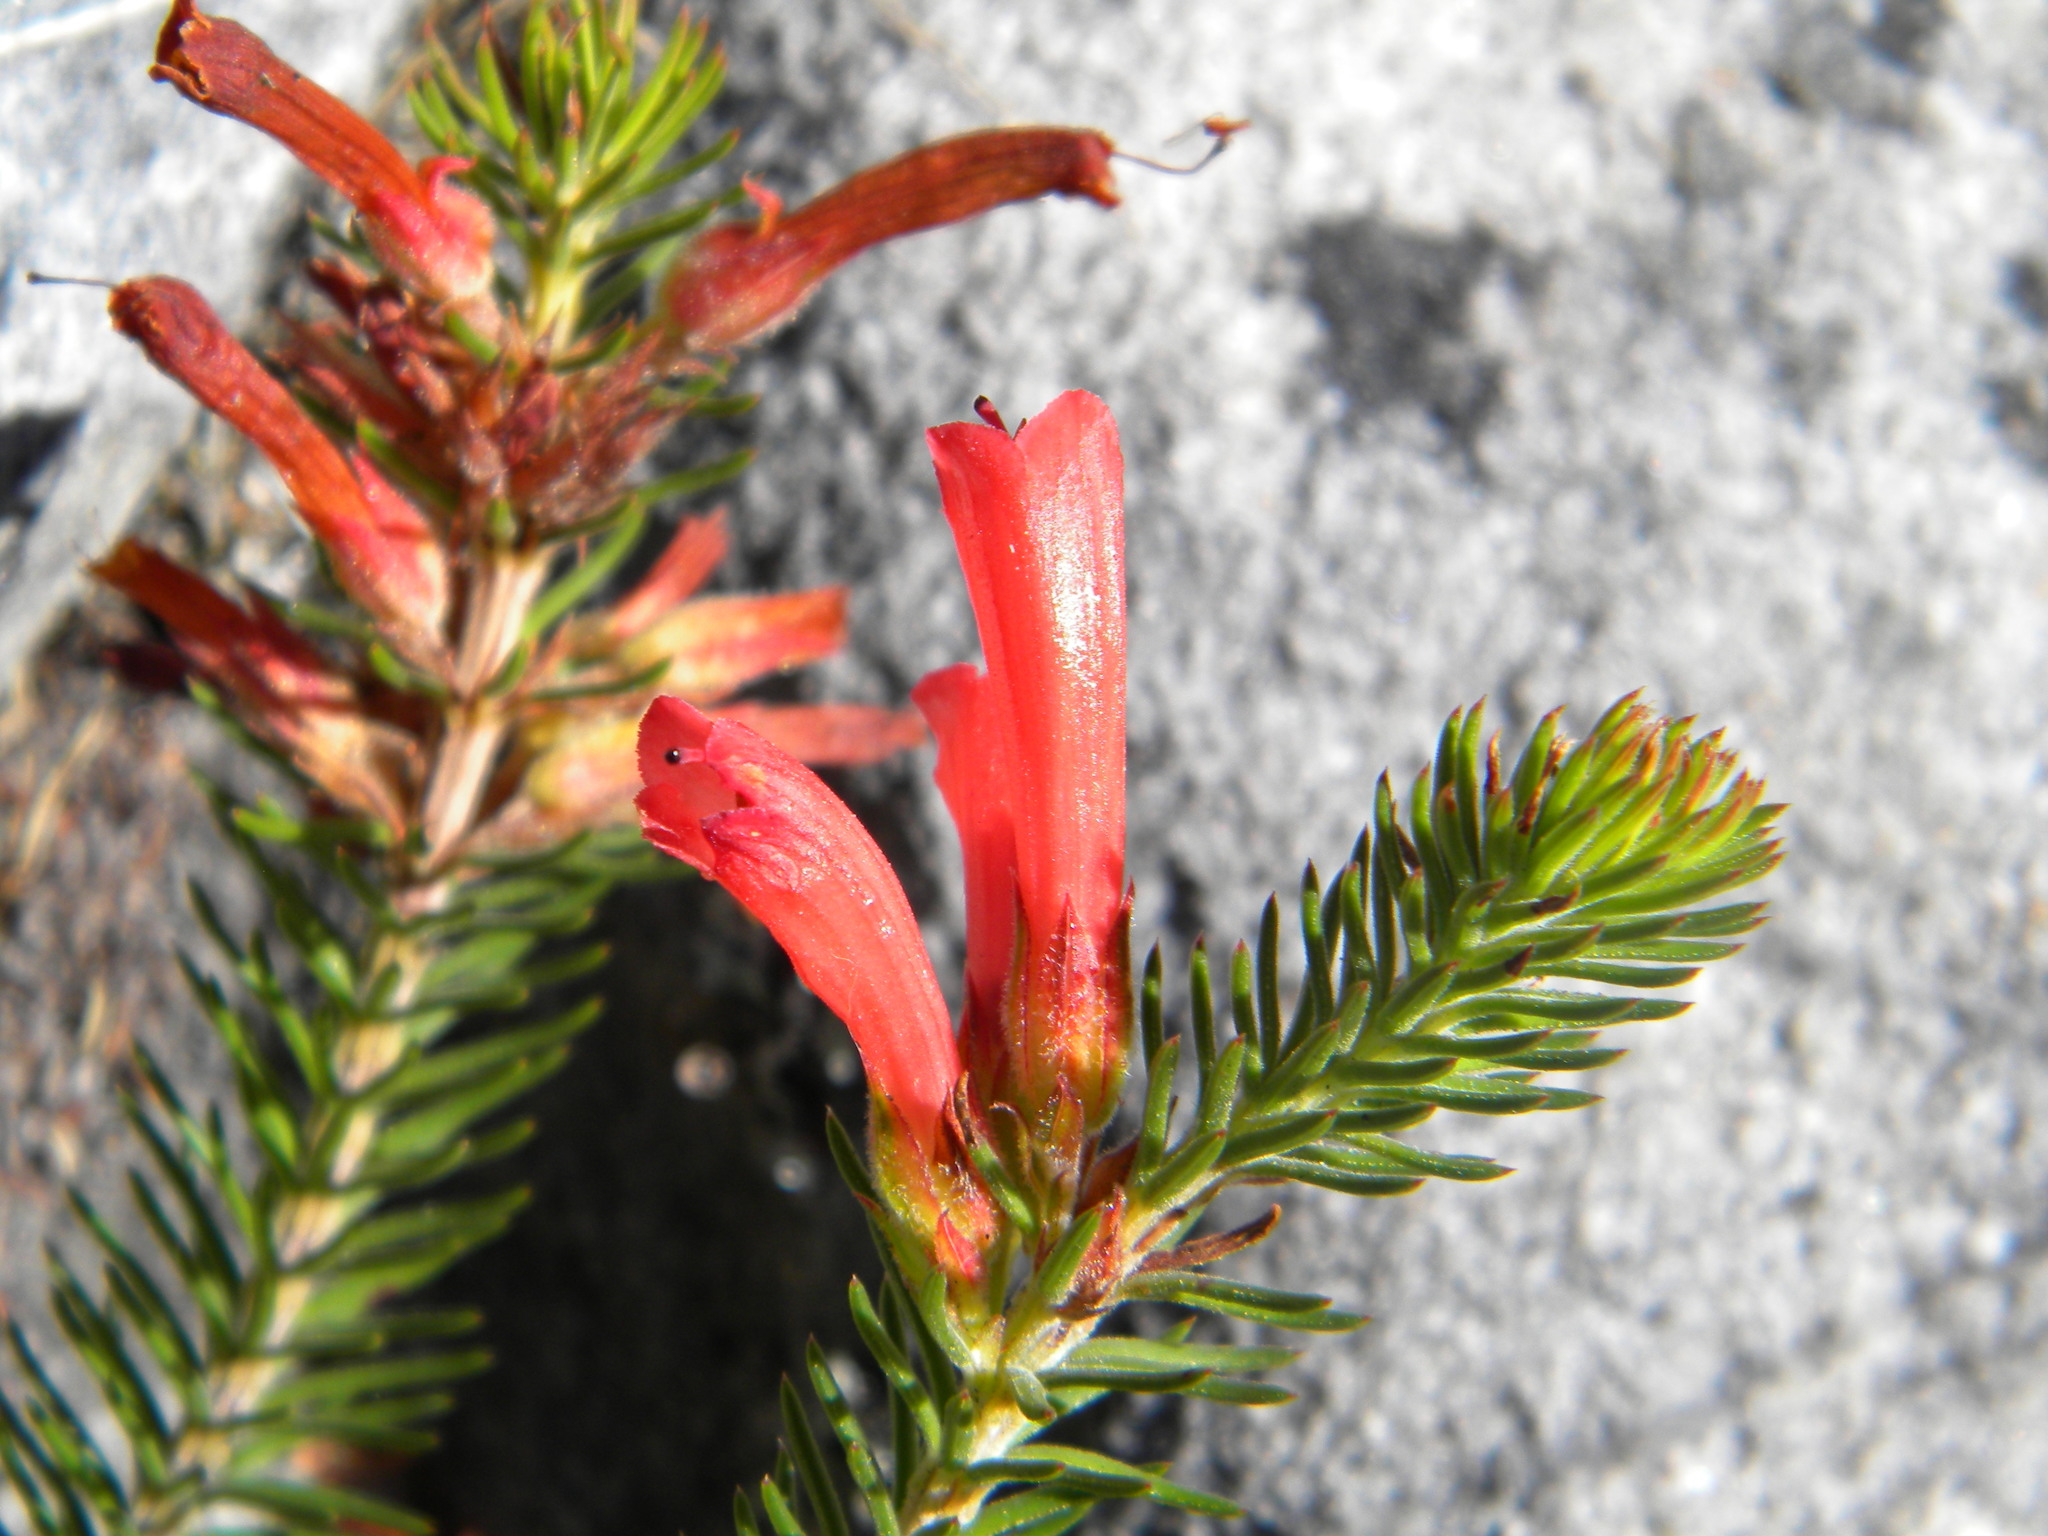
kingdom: Plantae
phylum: Tracheophyta
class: Magnoliopsida
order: Ericales
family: Ericaceae
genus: Erica
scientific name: Erica abietina
